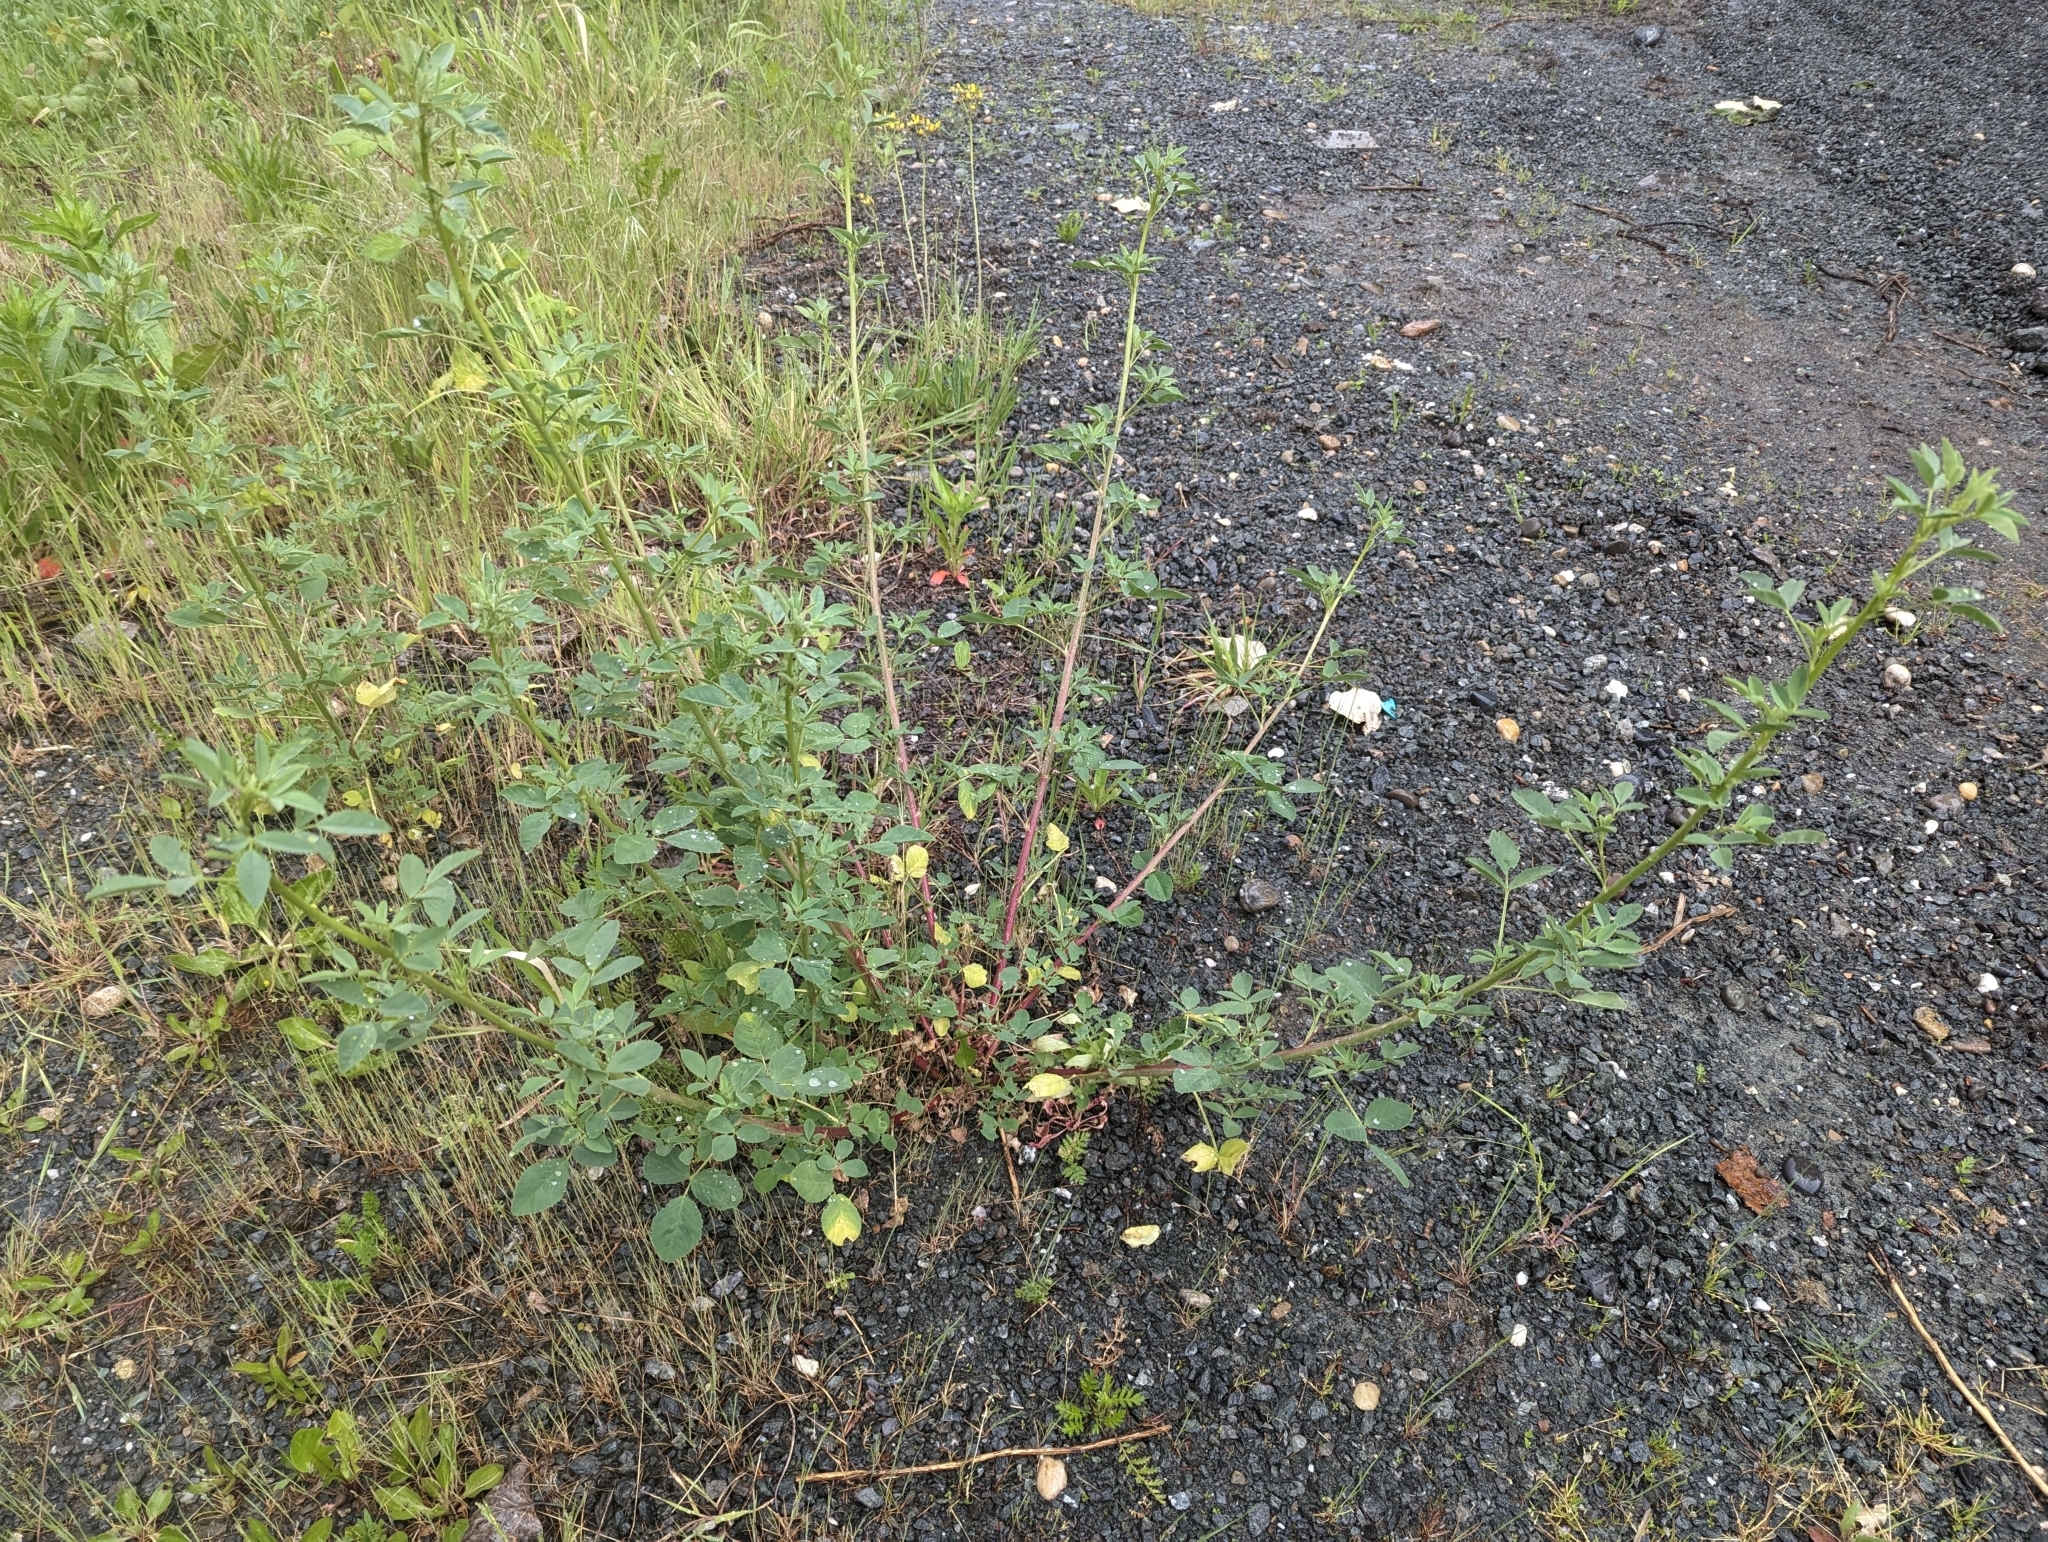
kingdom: Plantae
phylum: Tracheophyta
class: Magnoliopsida
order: Fabales
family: Fabaceae
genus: Melilotus
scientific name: Melilotus
